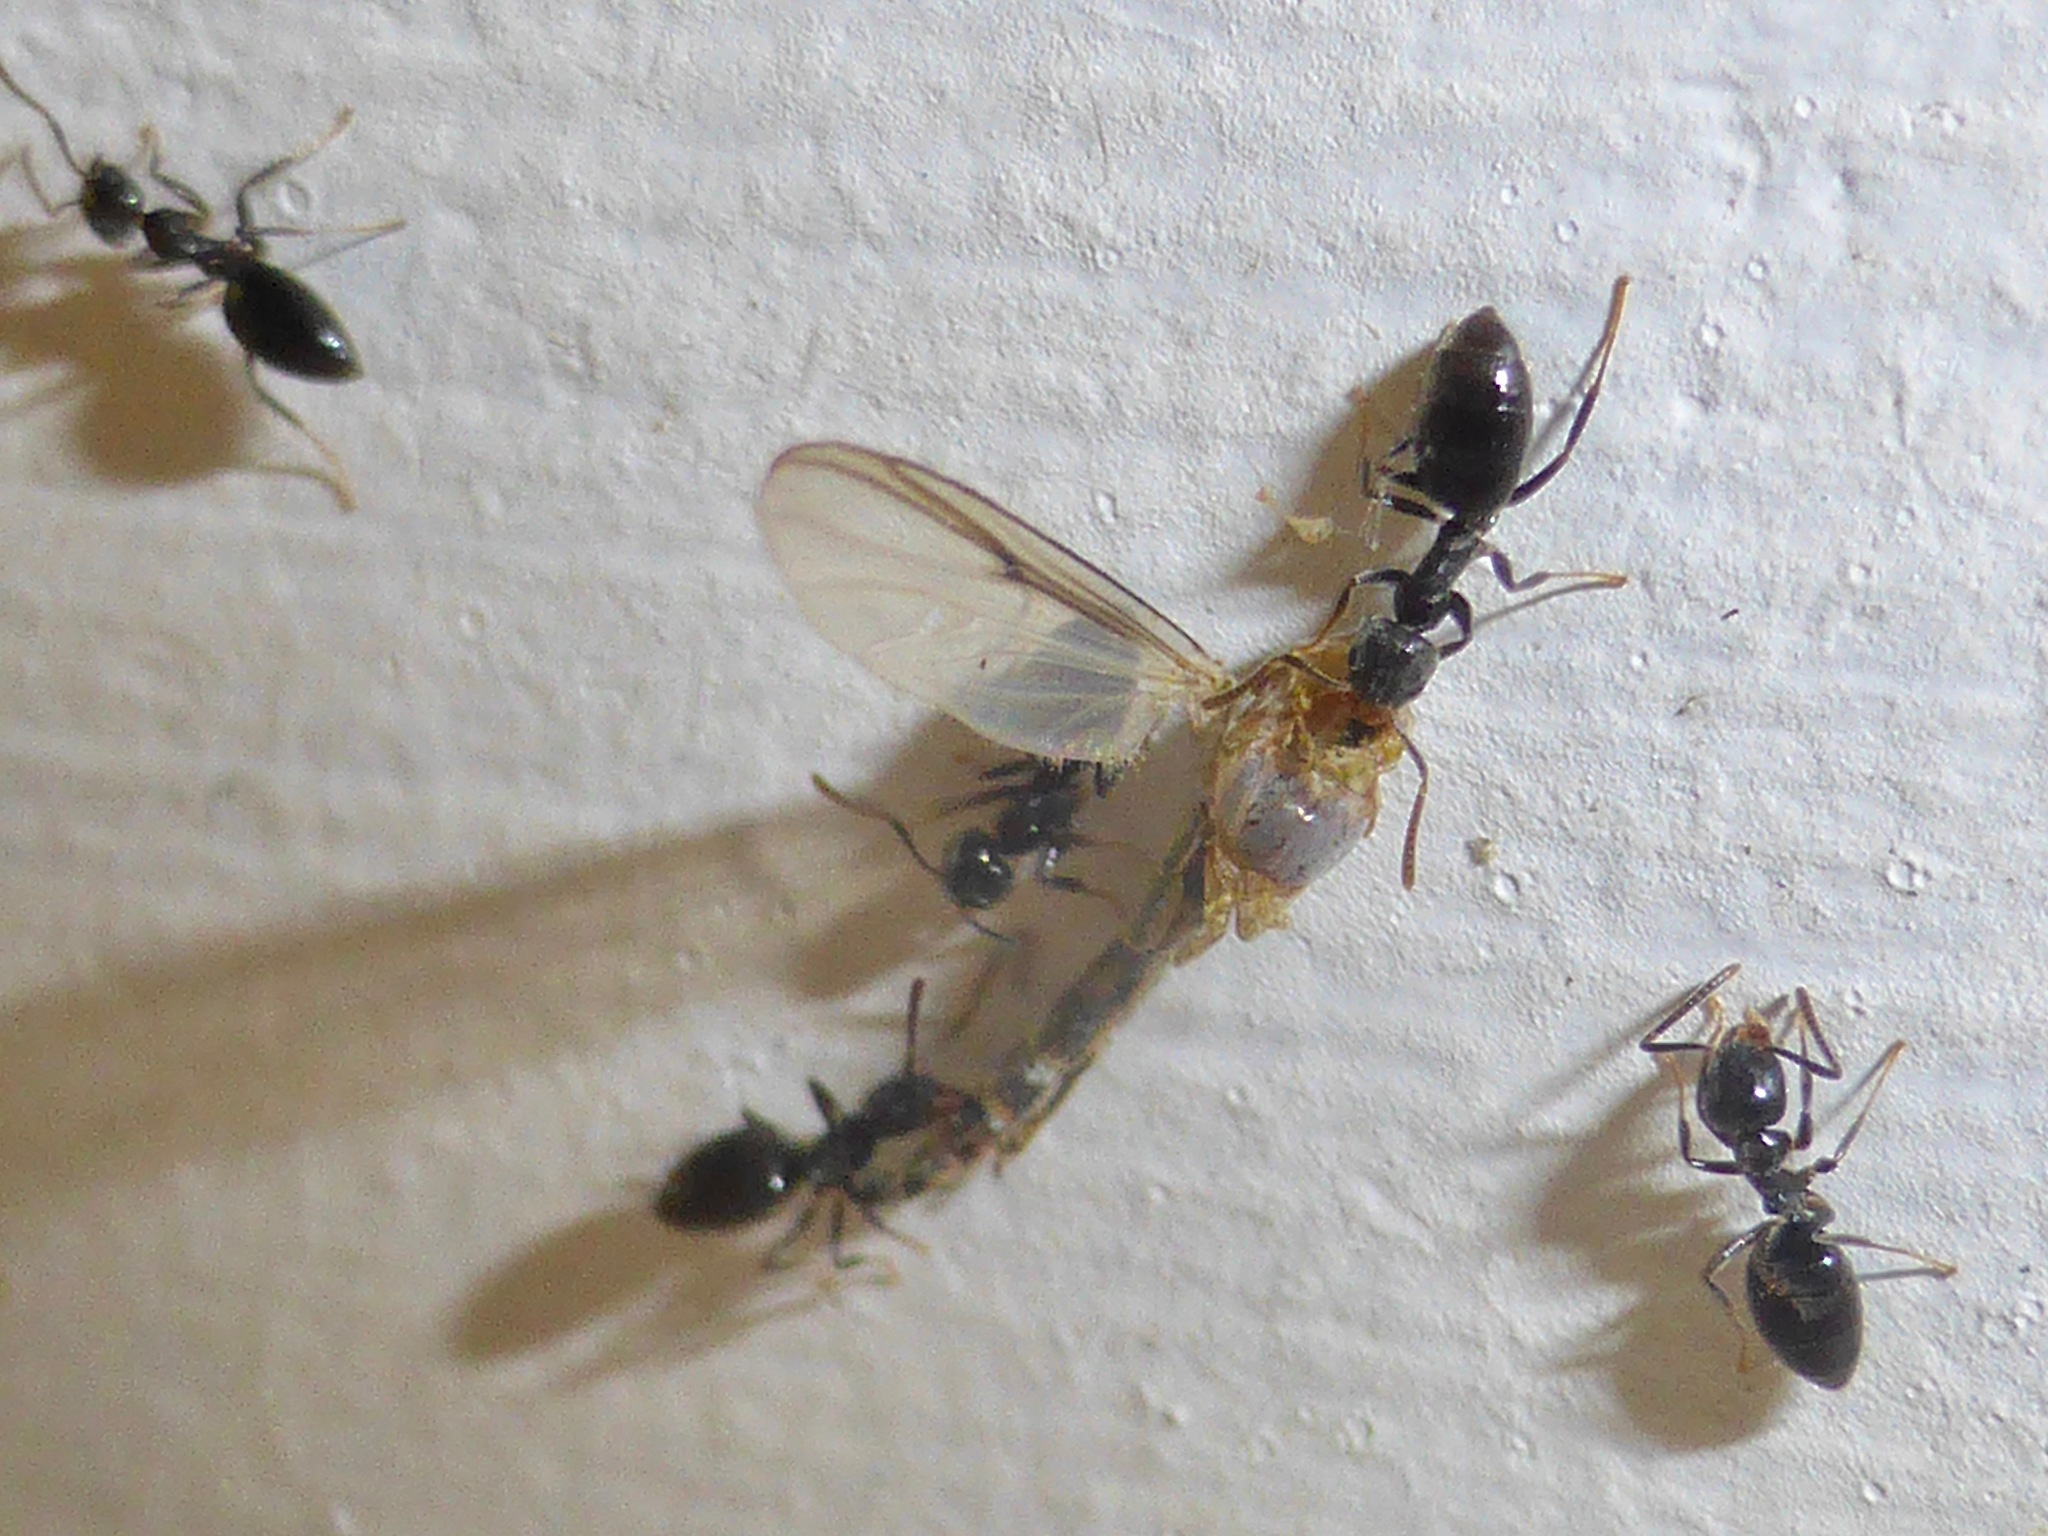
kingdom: Animalia
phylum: Arthropoda
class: Insecta
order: Hymenoptera
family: Formicidae
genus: Technomyrmex
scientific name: Technomyrmex jocosus
